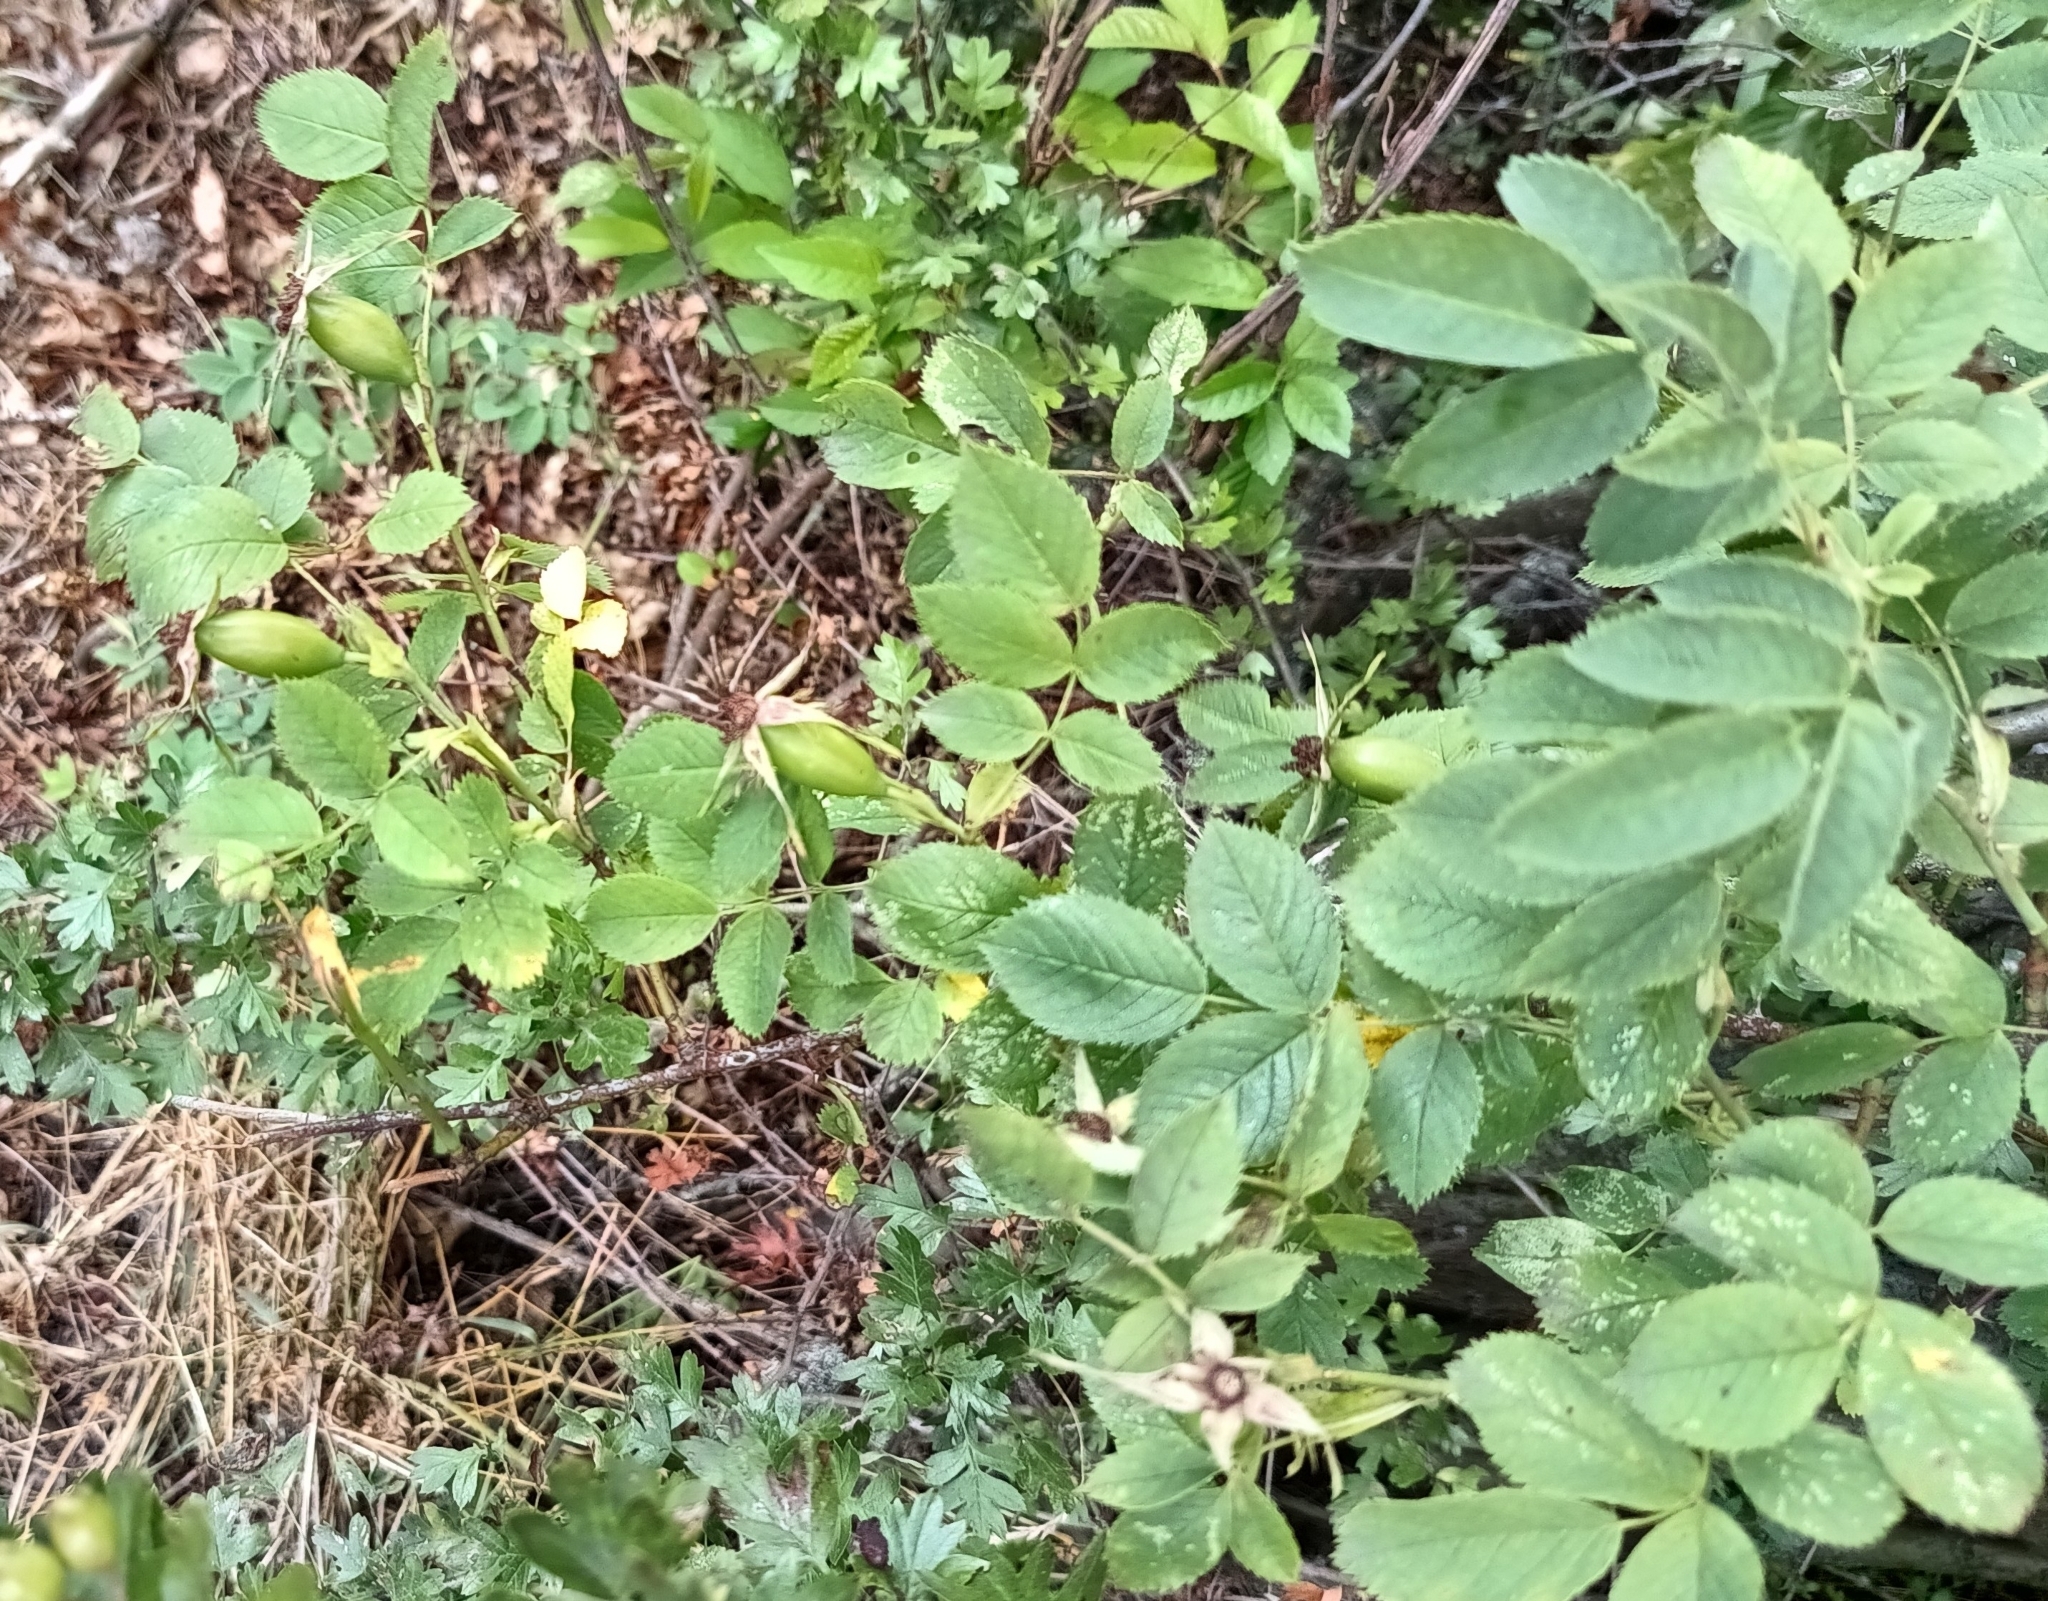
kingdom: Plantae
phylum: Tracheophyta
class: Magnoliopsida
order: Rosales
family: Rosaceae
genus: Rosa
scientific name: Rosa subcanina
